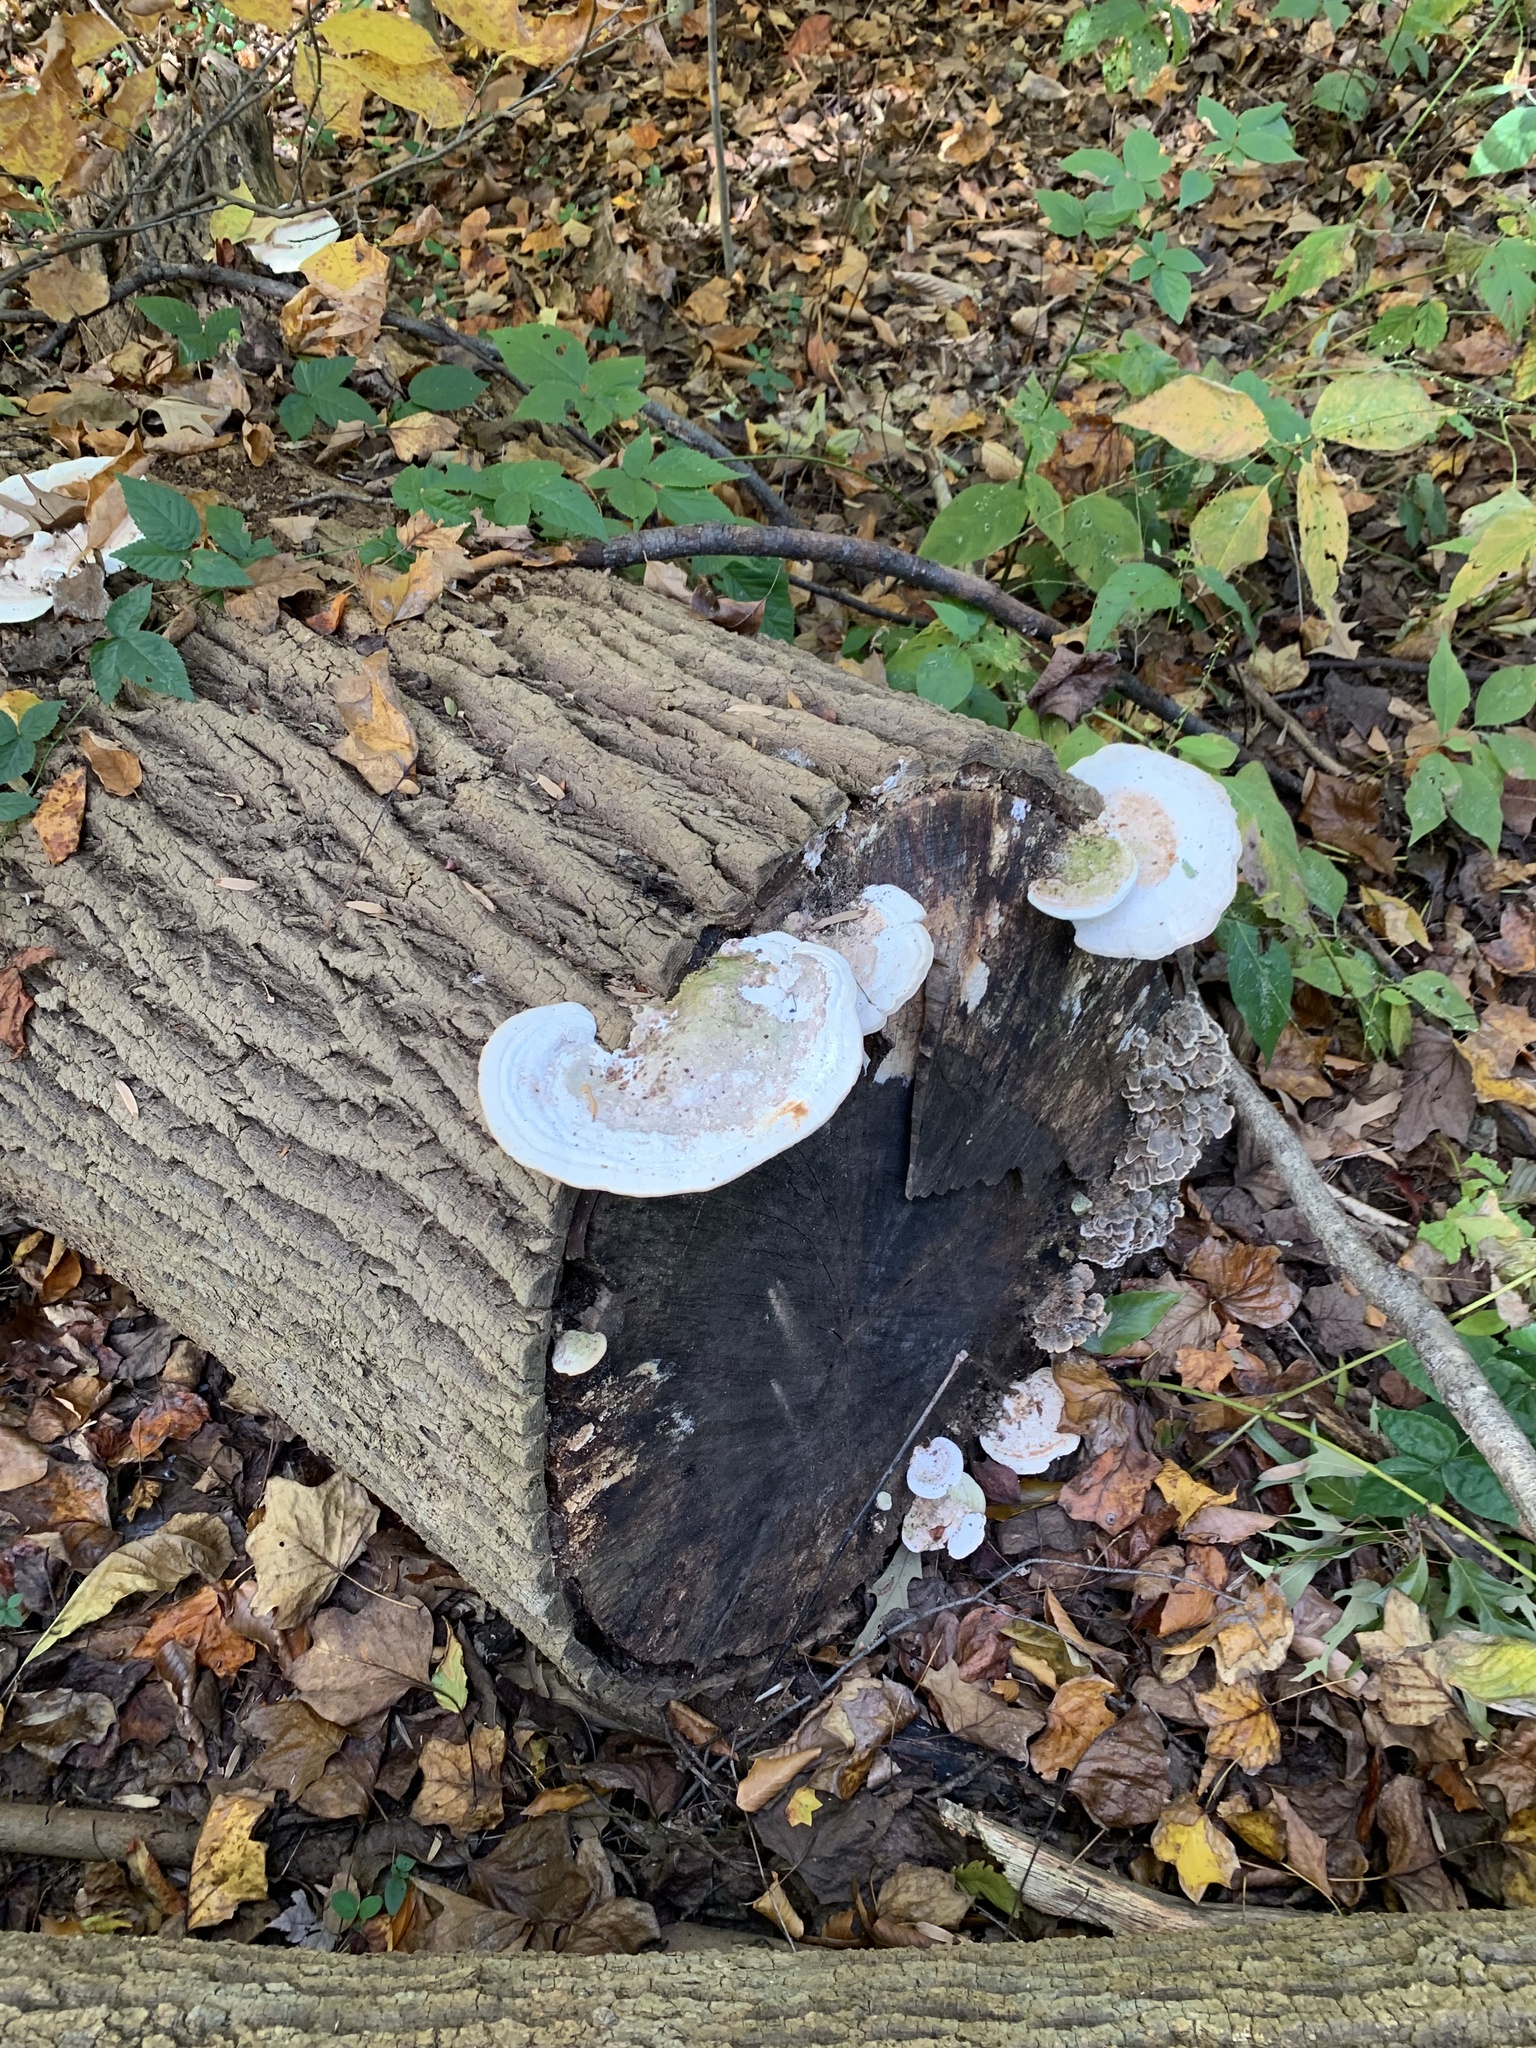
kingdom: Fungi
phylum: Basidiomycota
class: Agaricomycetes
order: Polyporales
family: Polyporaceae
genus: Trametes
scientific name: Trametes gibbosa
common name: Lumpy bracket
